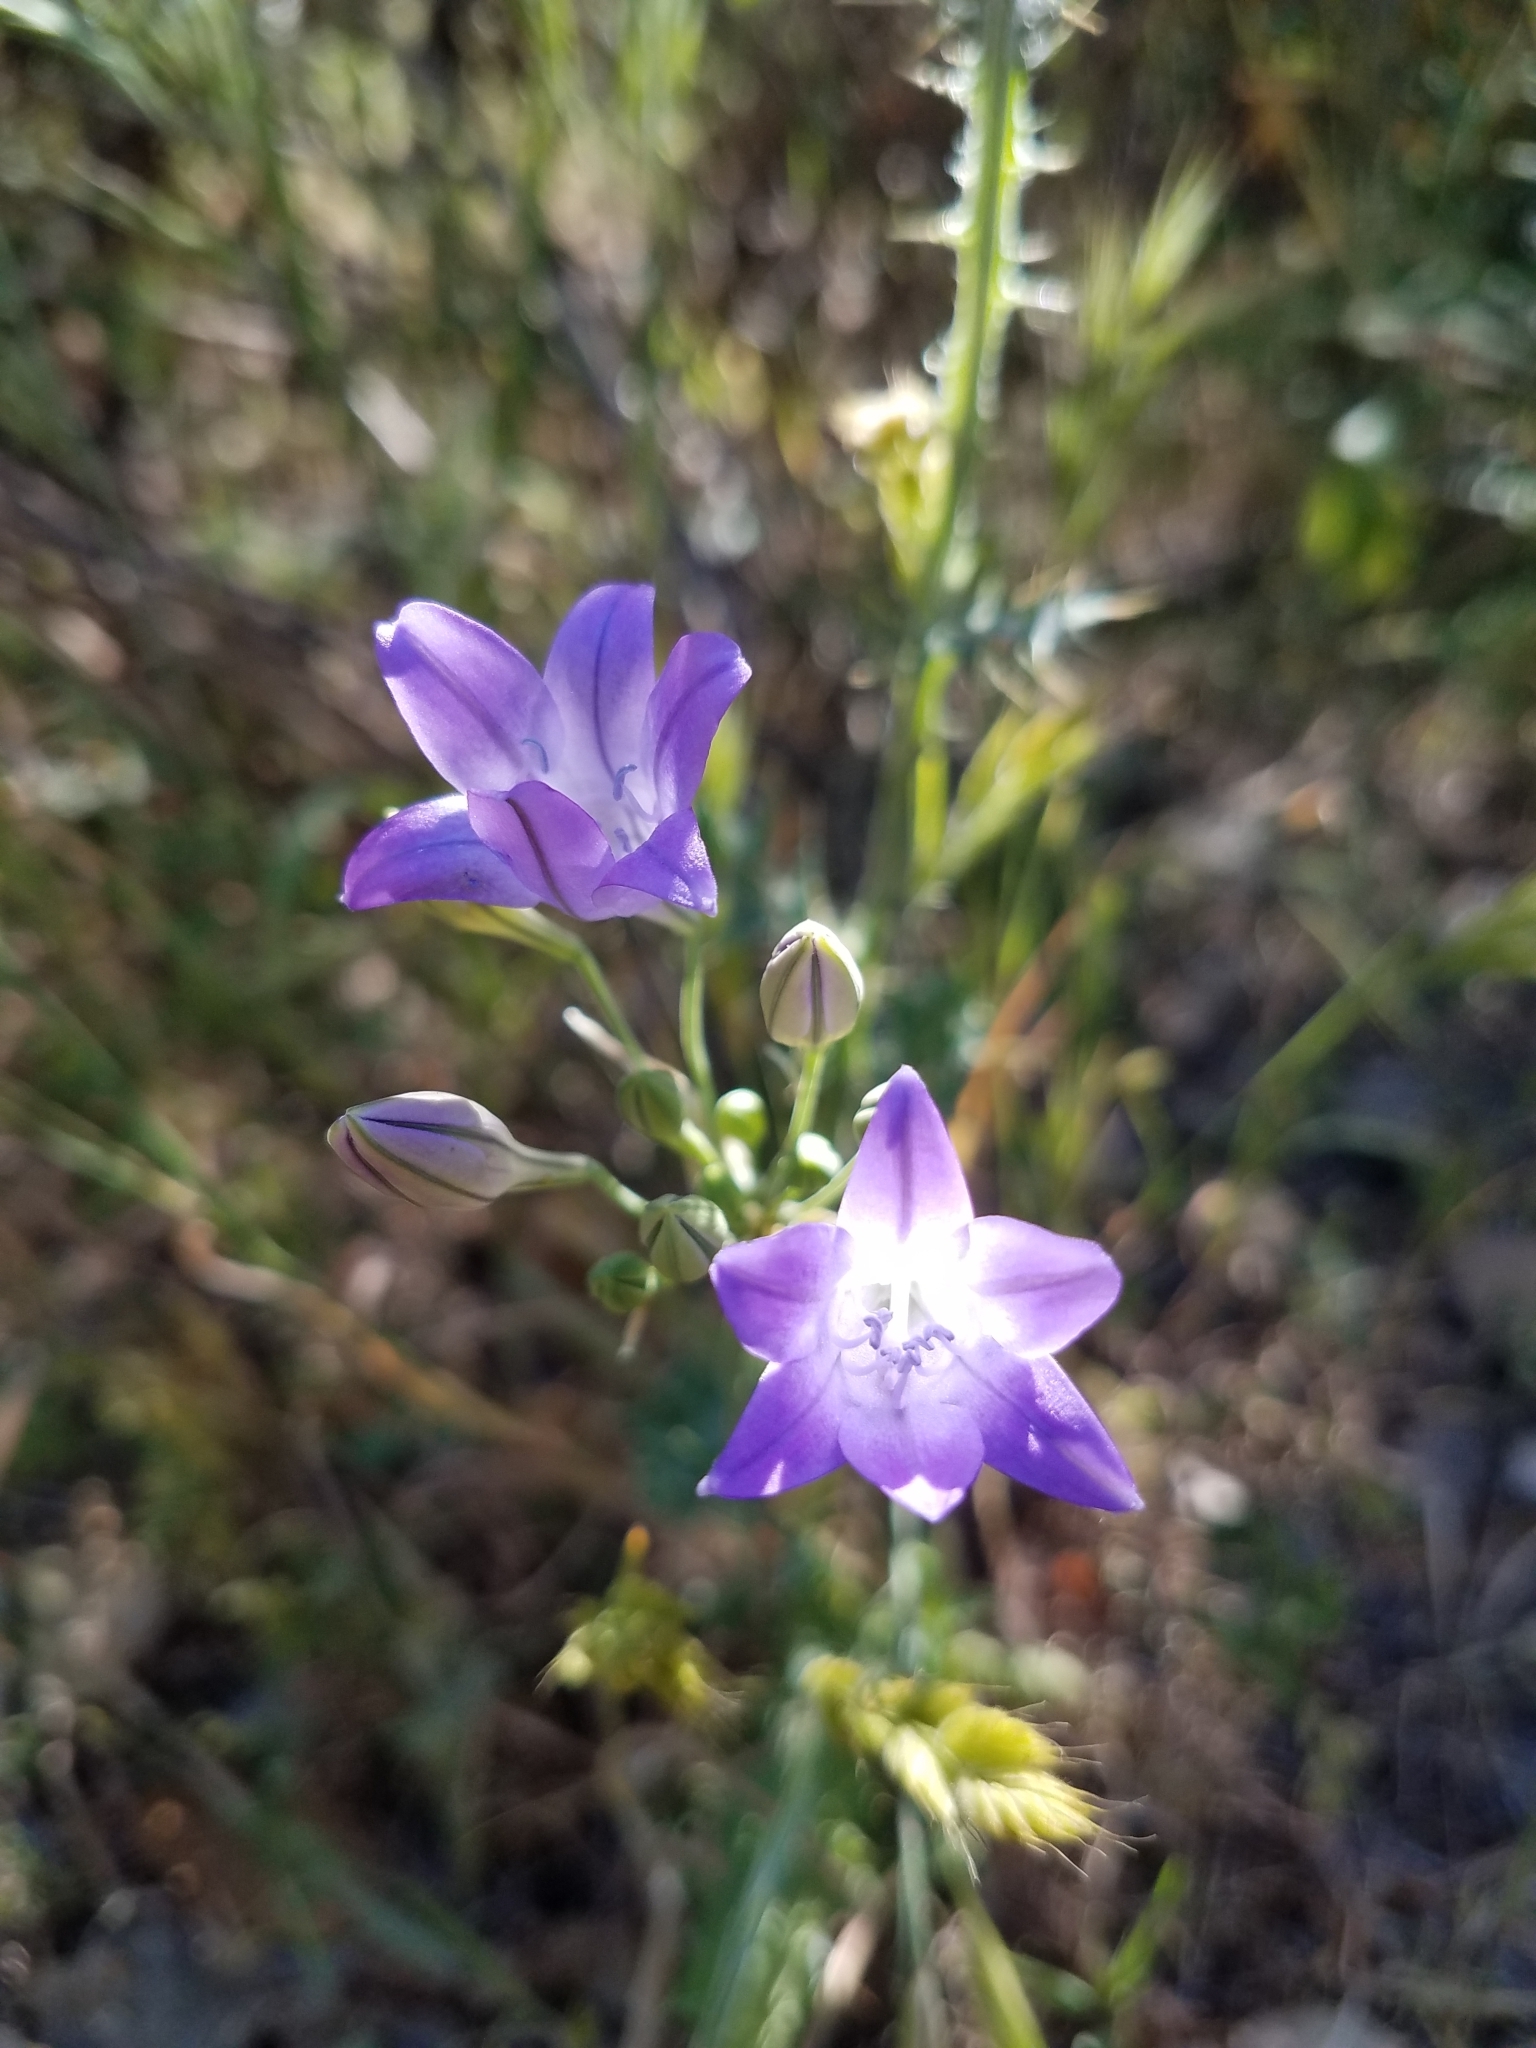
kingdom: Plantae
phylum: Tracheophyta
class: Liliopsida
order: Asparagales
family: Asparagaceae
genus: Triteleia
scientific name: Triteleia laxa
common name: Triplet-lily
